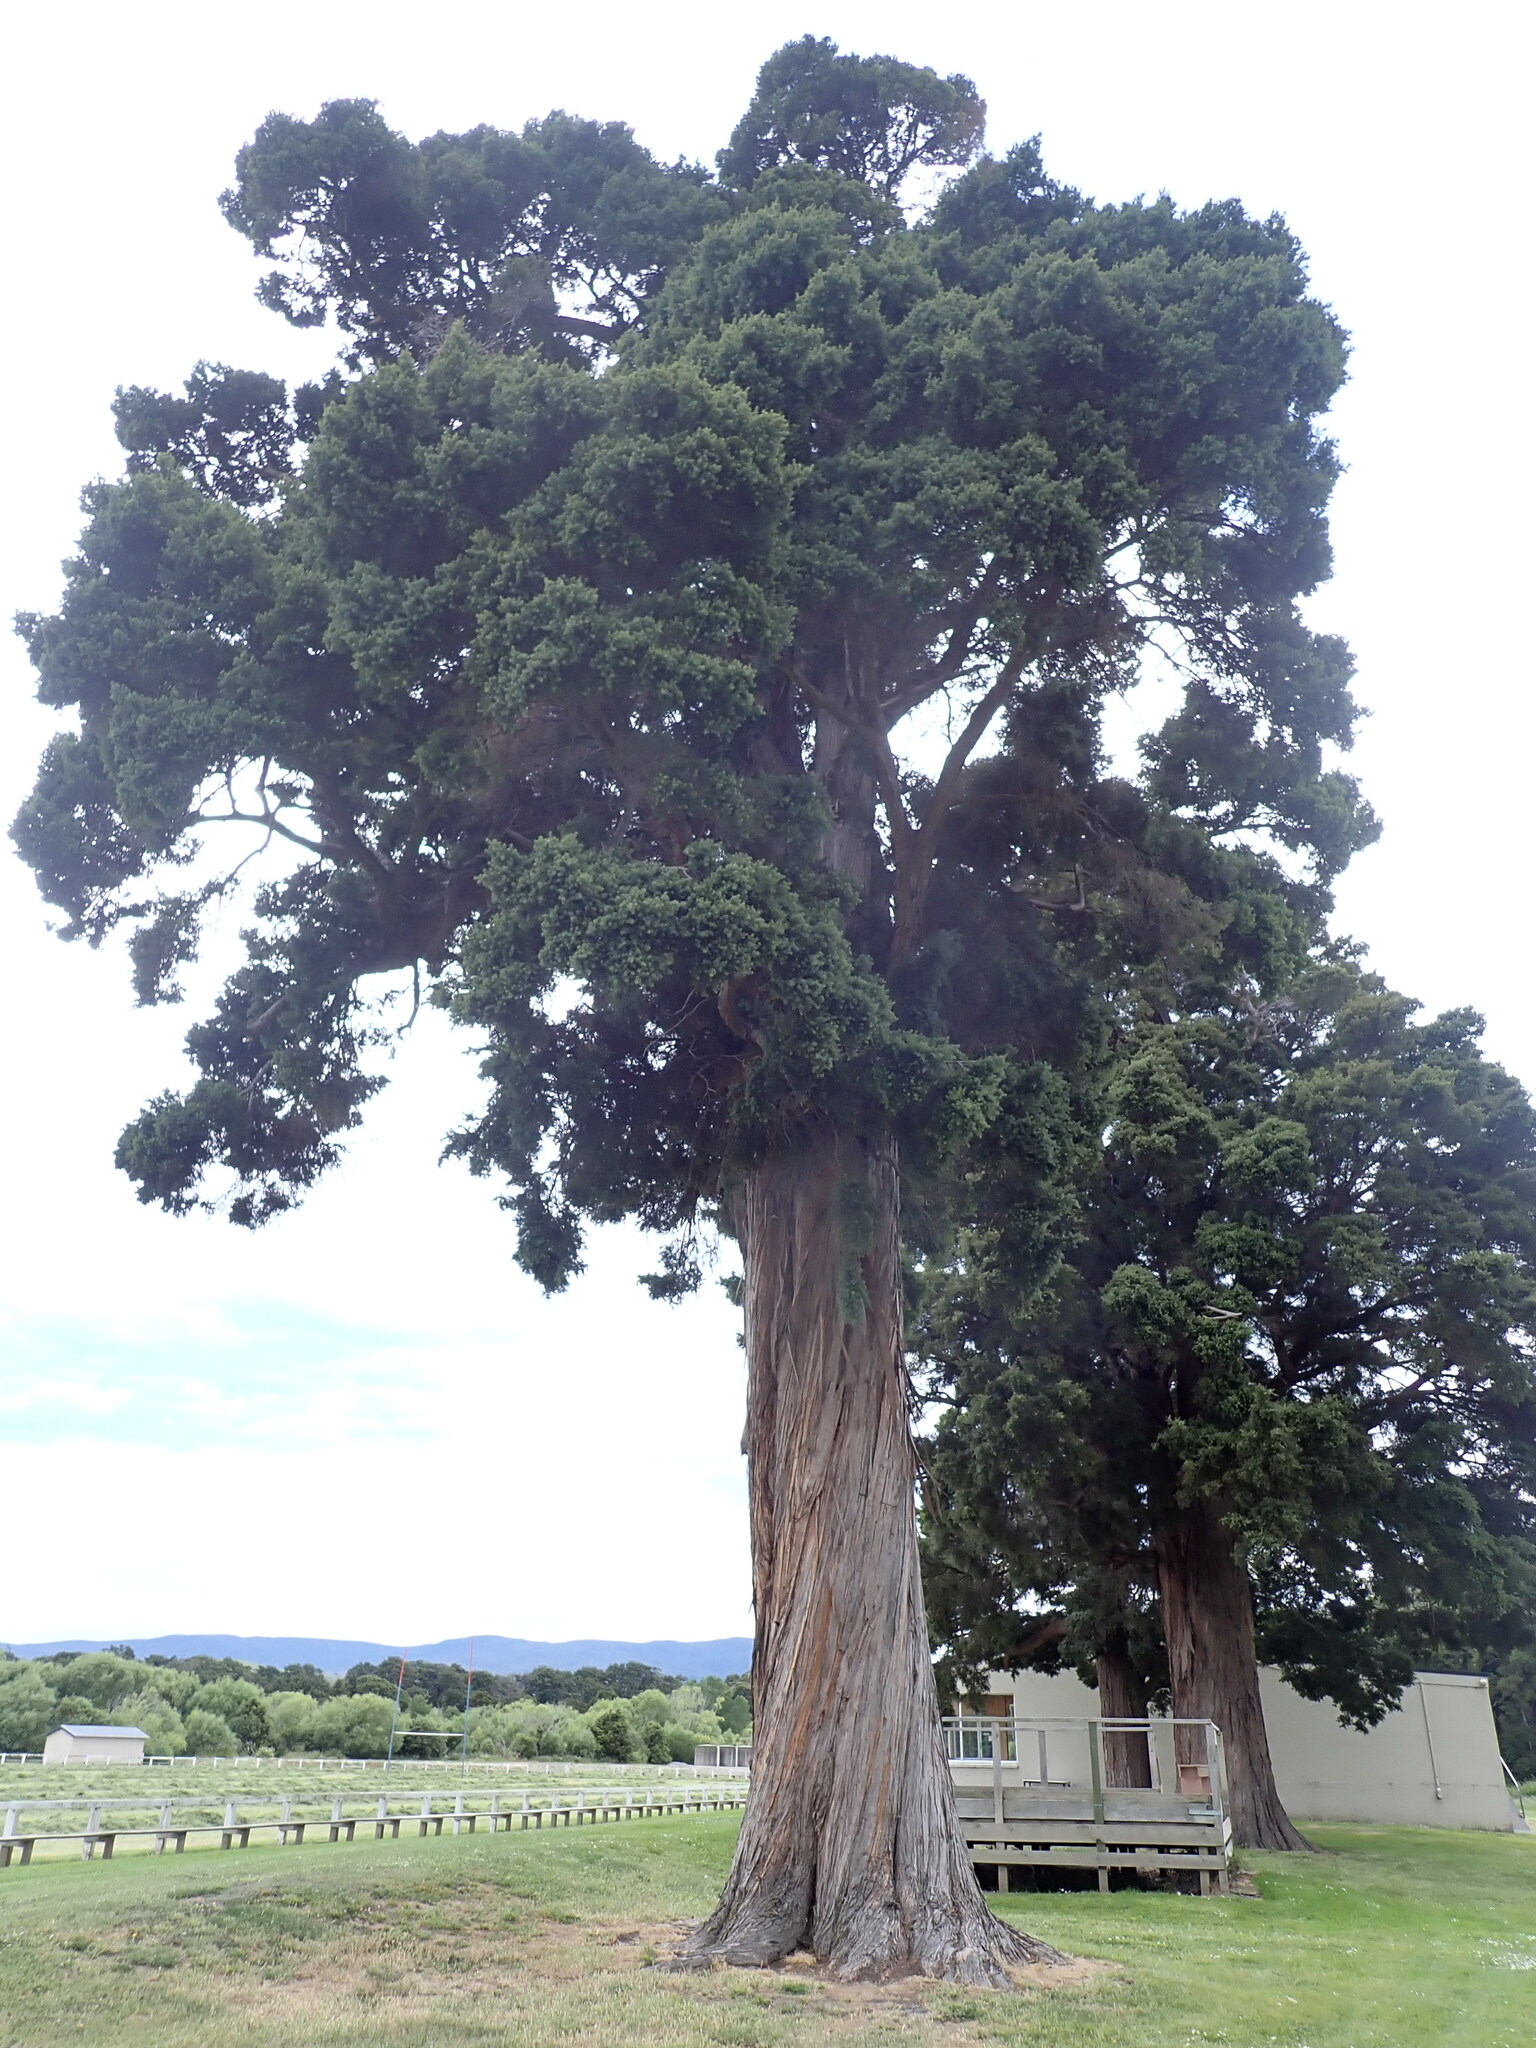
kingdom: Plantae
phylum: Tracheophyta
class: Pinopsida
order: Pinales
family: Podocarpaceae
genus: Podocarpus
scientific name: Podocarpus totara
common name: Totara
